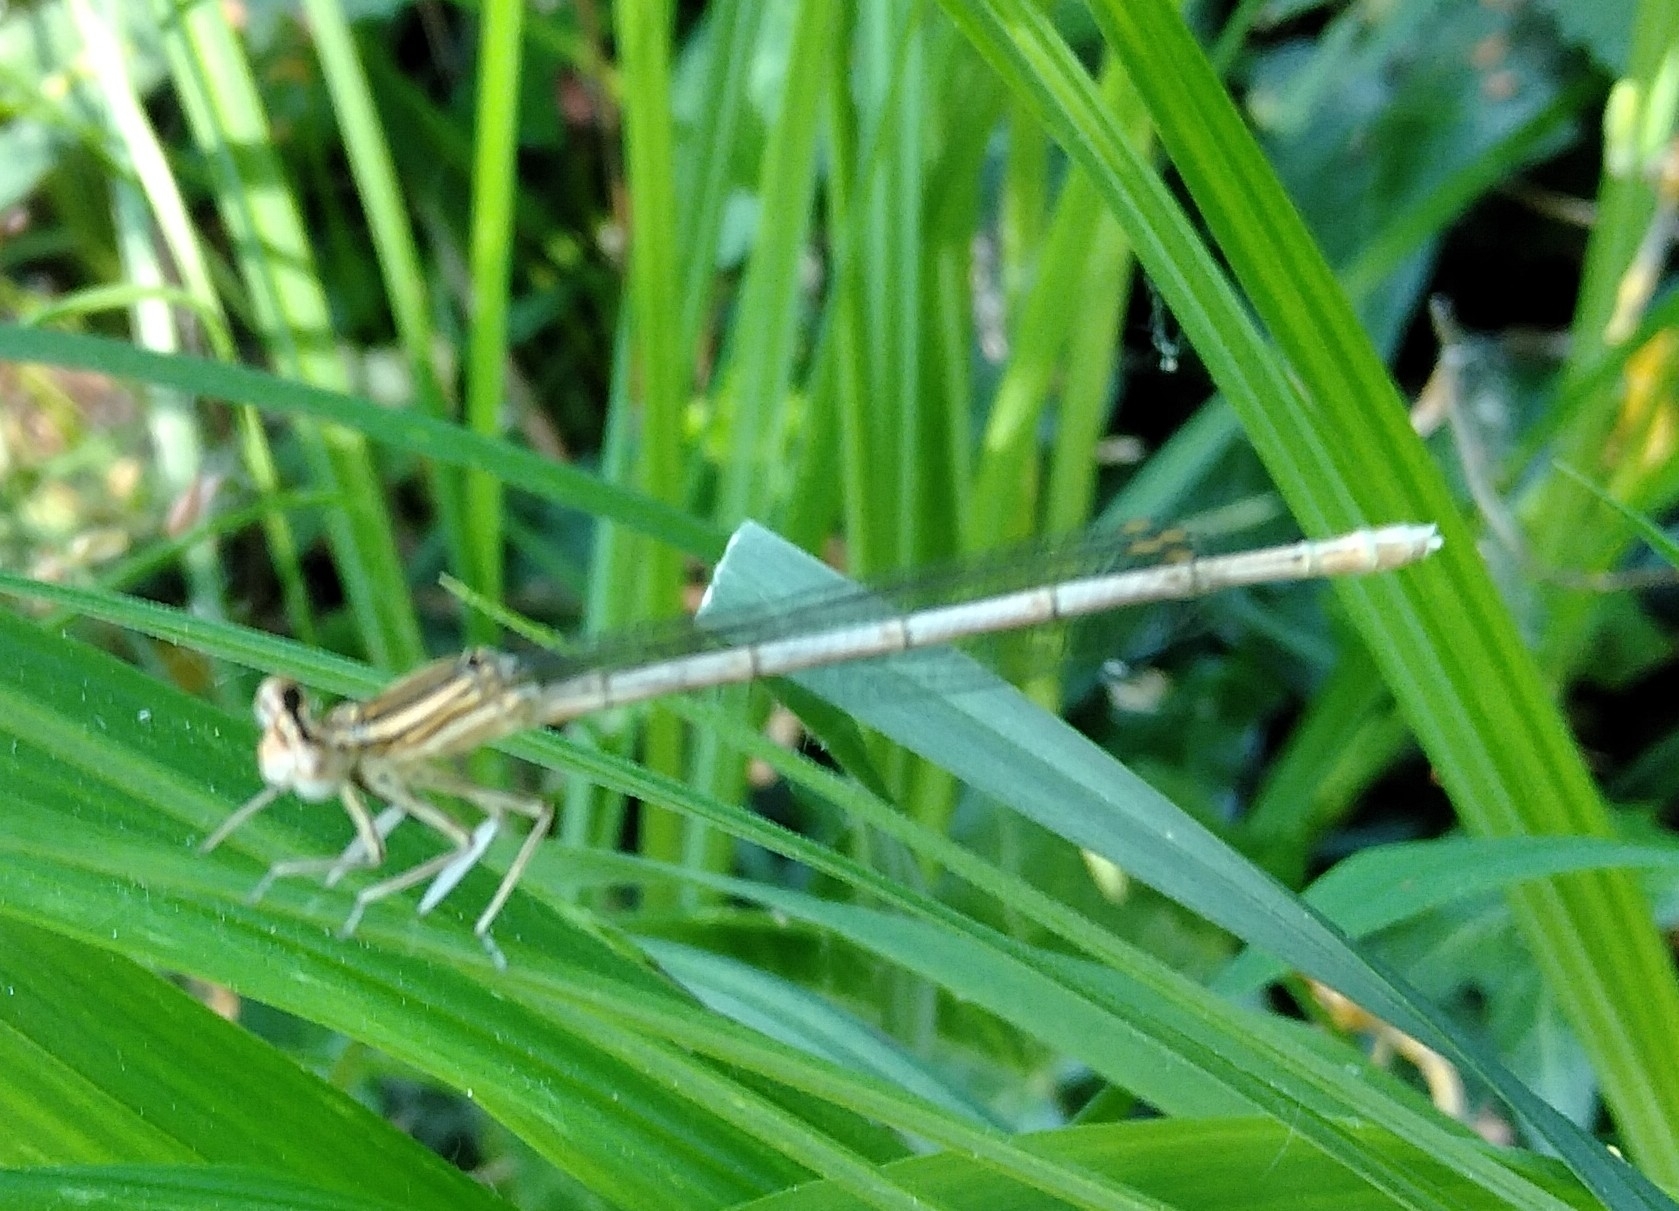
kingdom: Animalia
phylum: Arthropoda
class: Insecta
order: Odonata
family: Platycnemididae
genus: Platycnemis
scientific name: Platycnemis pennipes
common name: White-legged damselfly
